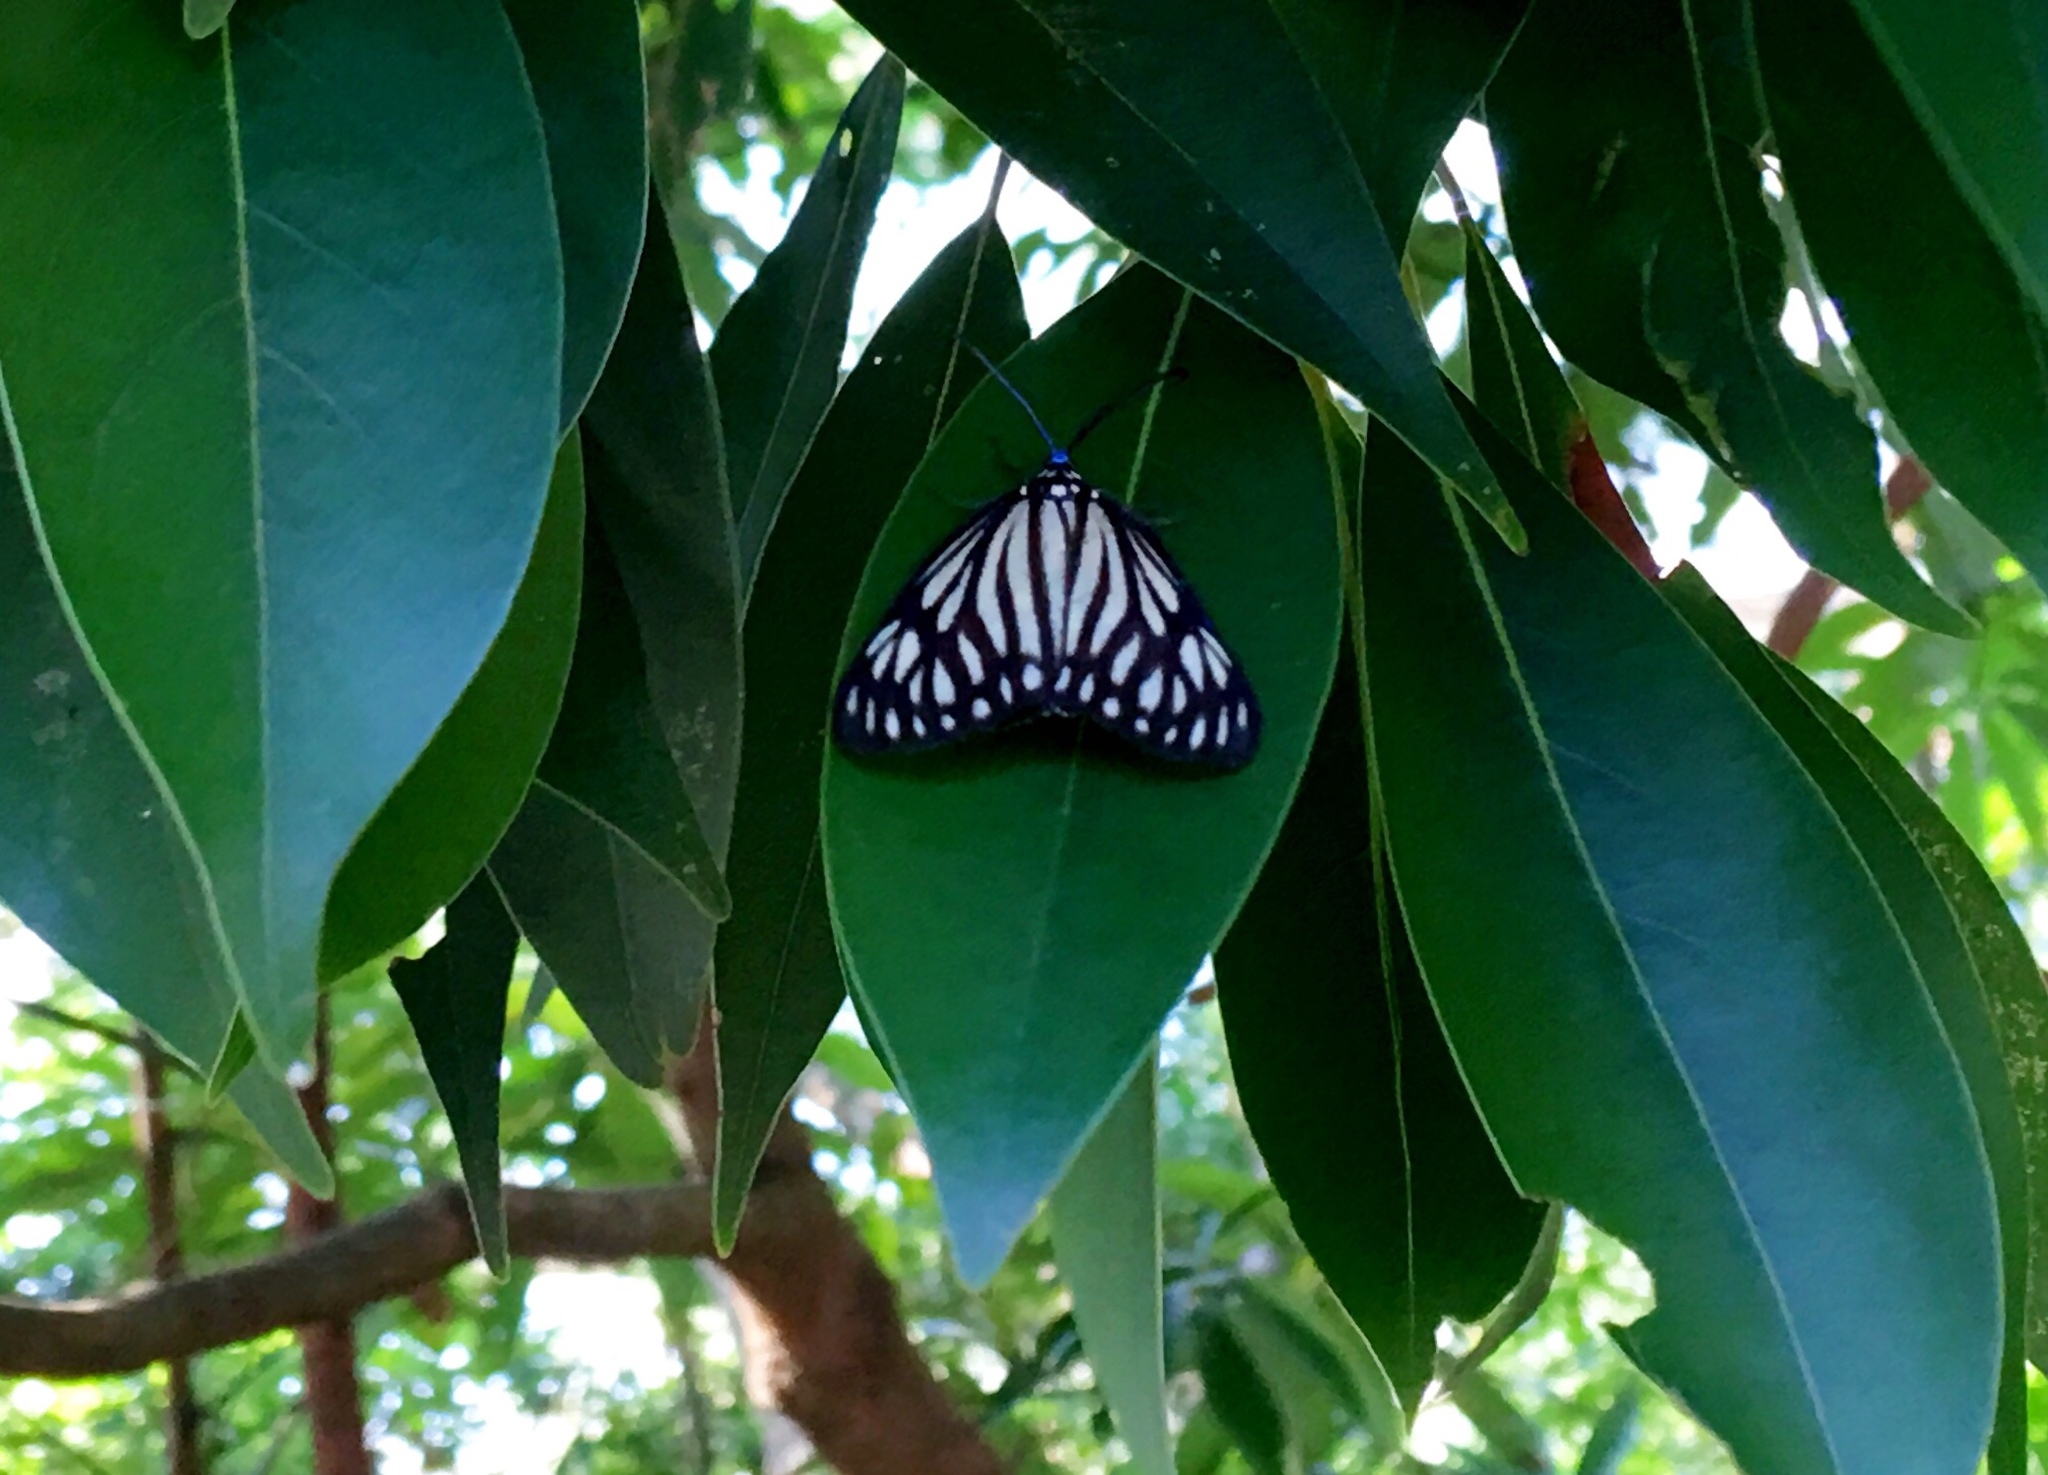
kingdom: Animalia
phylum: Arthropoda
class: Insecta
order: Lepidoptera
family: Zygaenidae
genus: Cyclosia
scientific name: Cyclosia papilionaris
